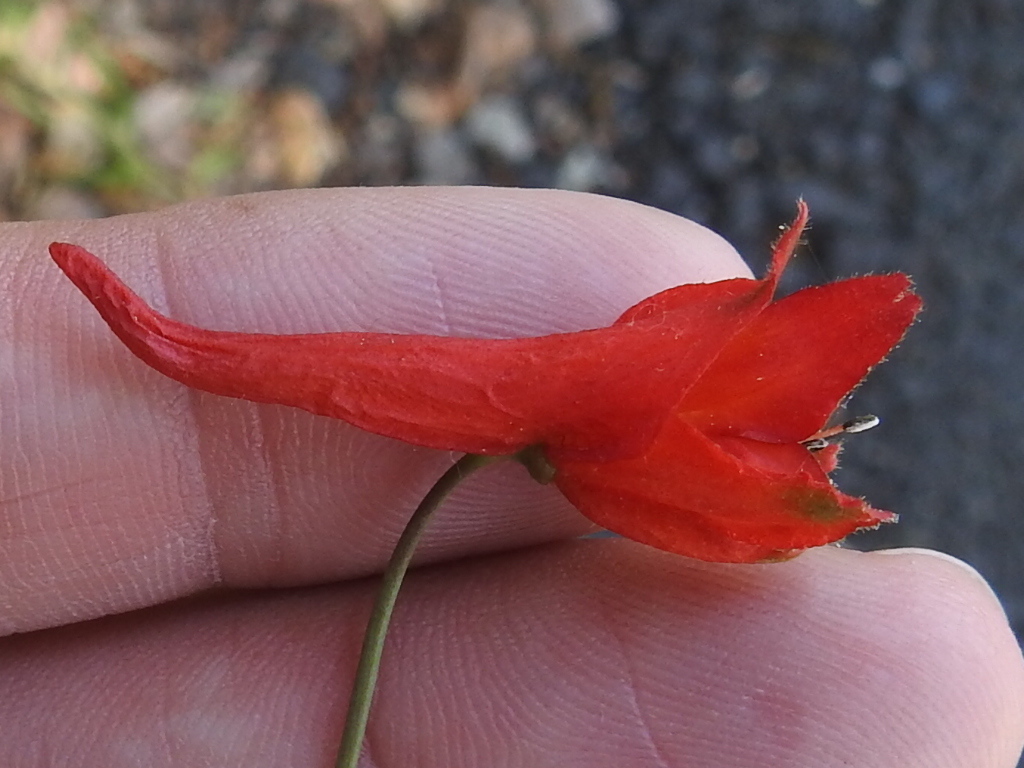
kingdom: Plantae
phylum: Tracheophyta
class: Magnoliopsida
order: Ranunculales
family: Ranunculaceae
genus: Delphinium
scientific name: Delphinium nudicaule
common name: Red larkspur
